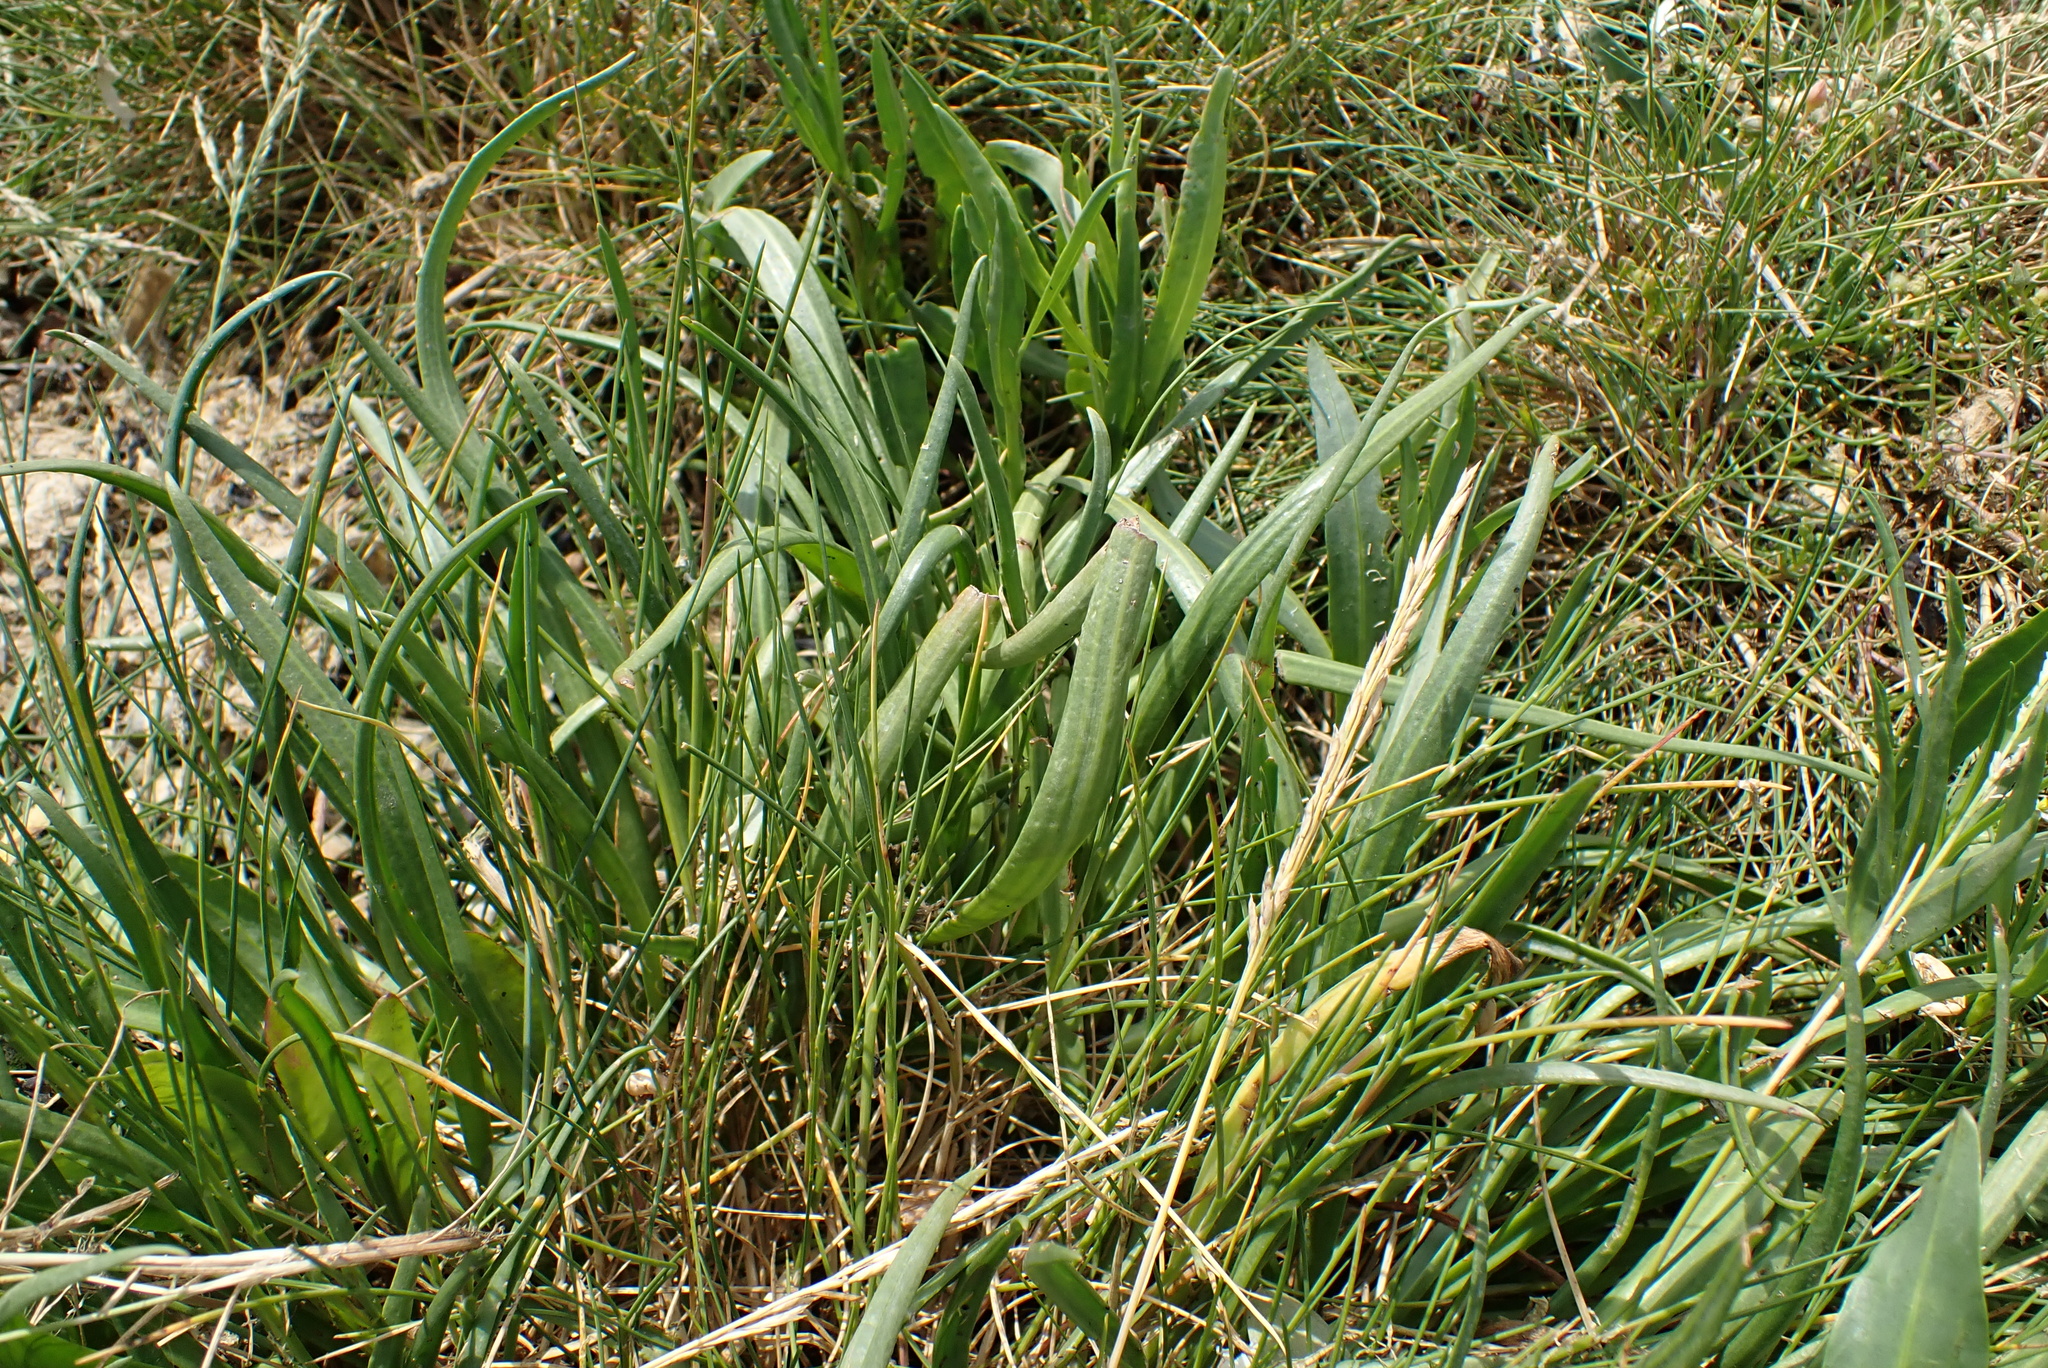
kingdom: Plantae
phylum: Tracheophyta
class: Magnoliopsida
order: Lamiales
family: Plantaginaceae
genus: Plantago
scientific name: Plantago maritima
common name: Sea plantain
